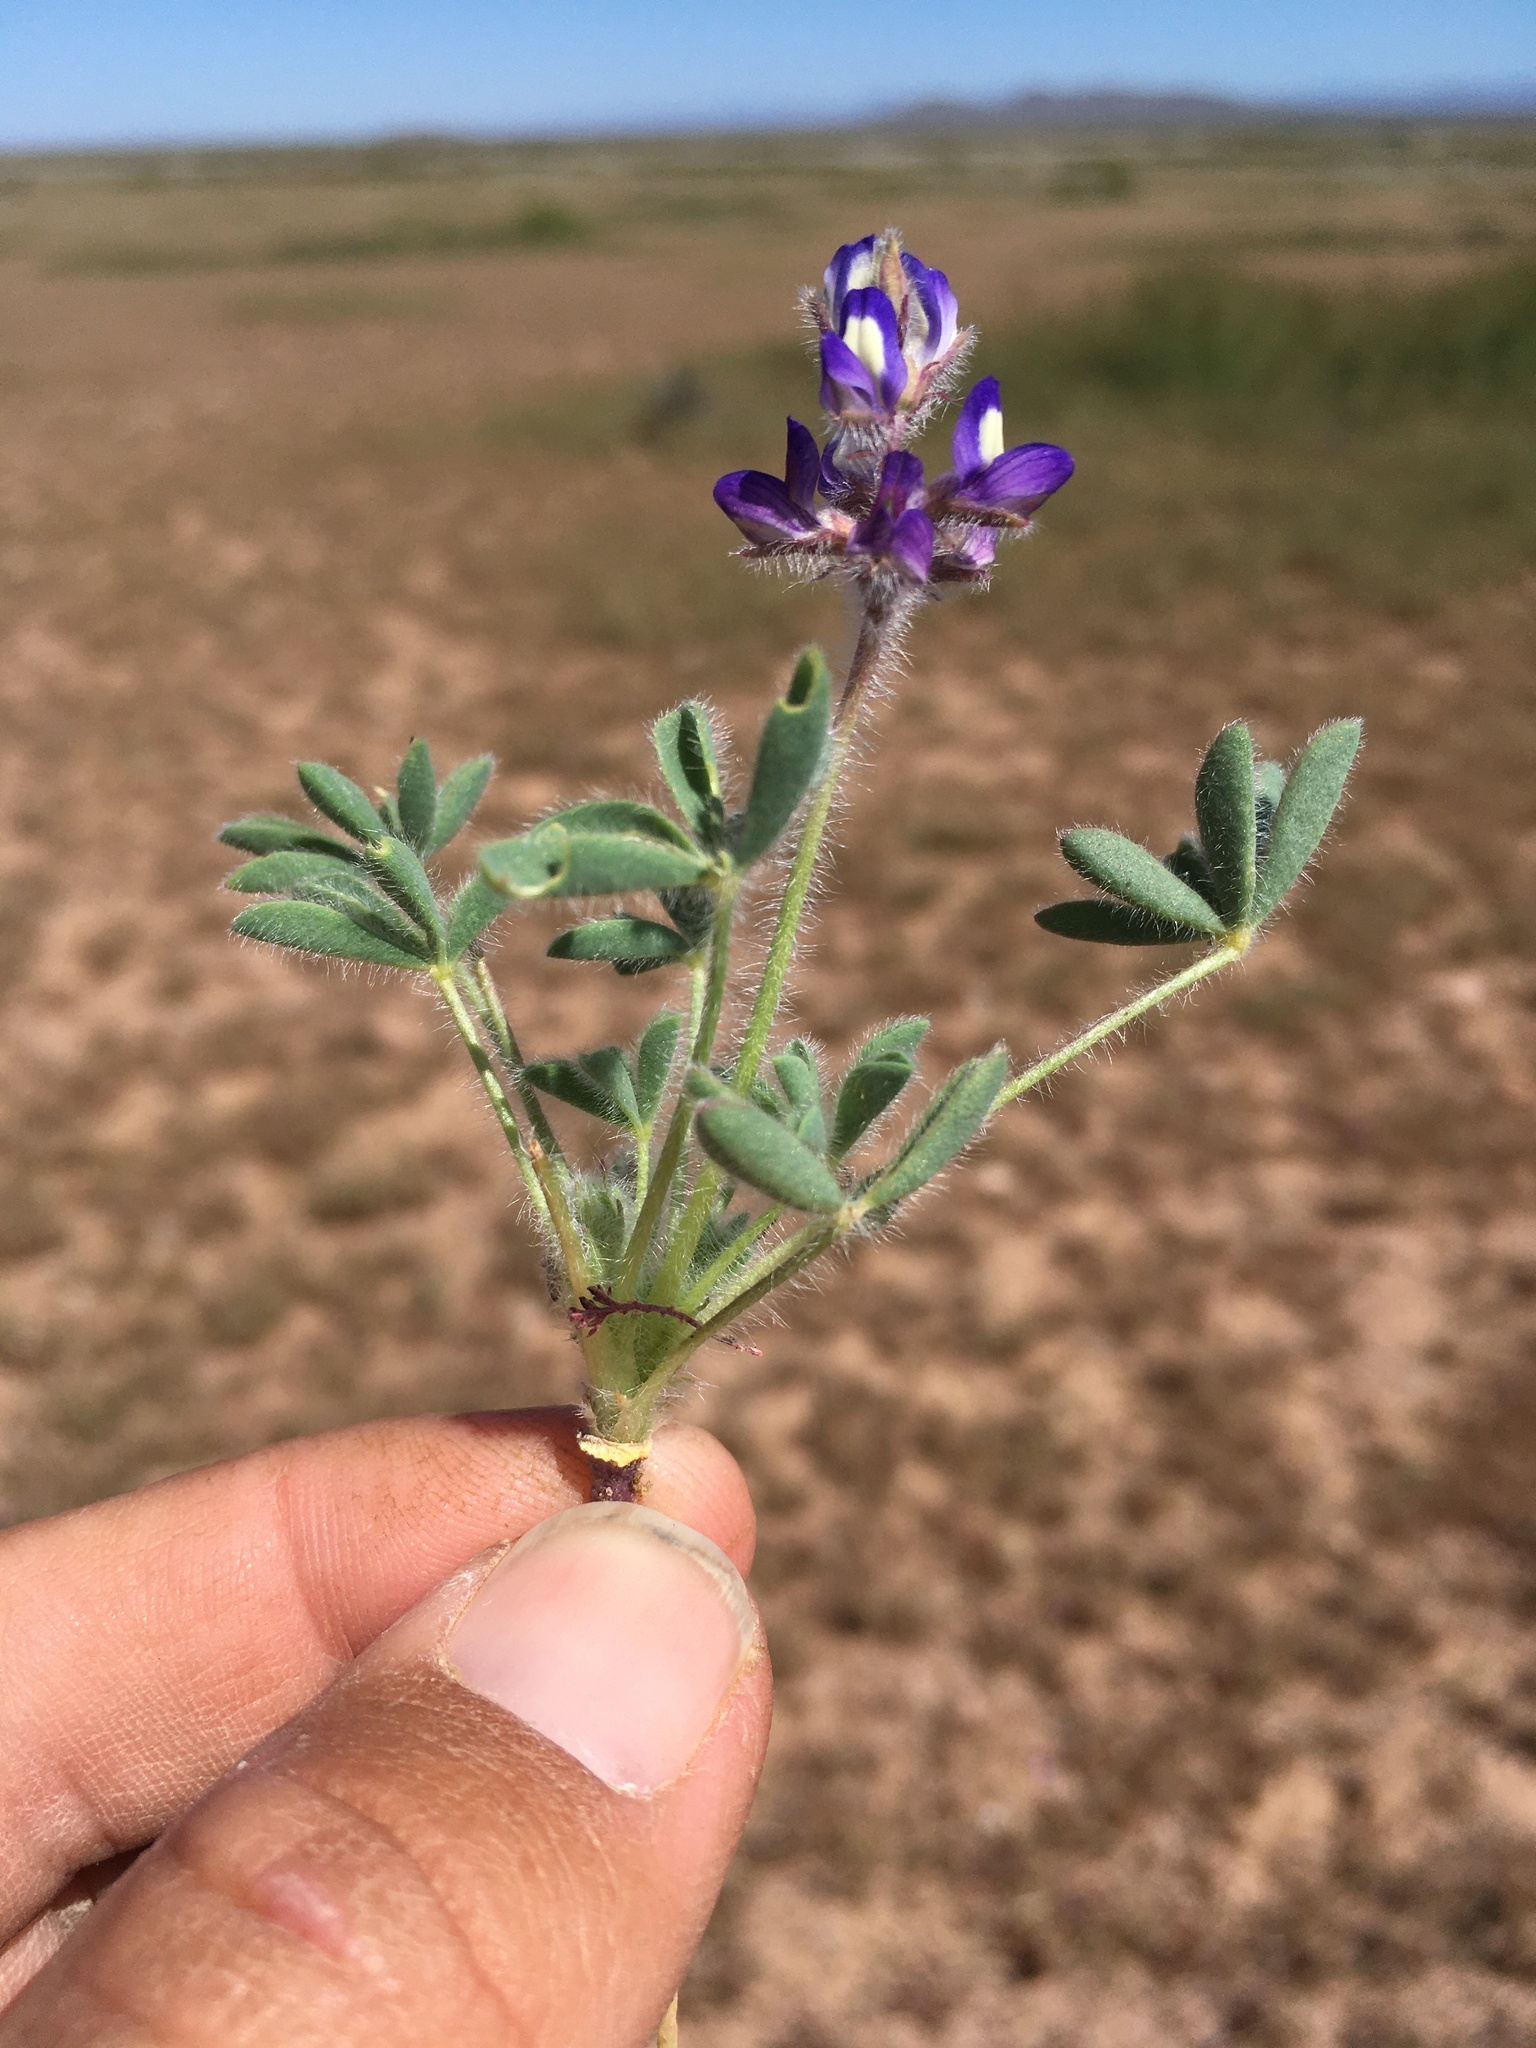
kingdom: Plantae
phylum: Tracheophyta
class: Magnoliopsida
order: Fabales
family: Fabaceae
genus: Lupinus
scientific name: Lupinus brevicaulis
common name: Sand lupine
